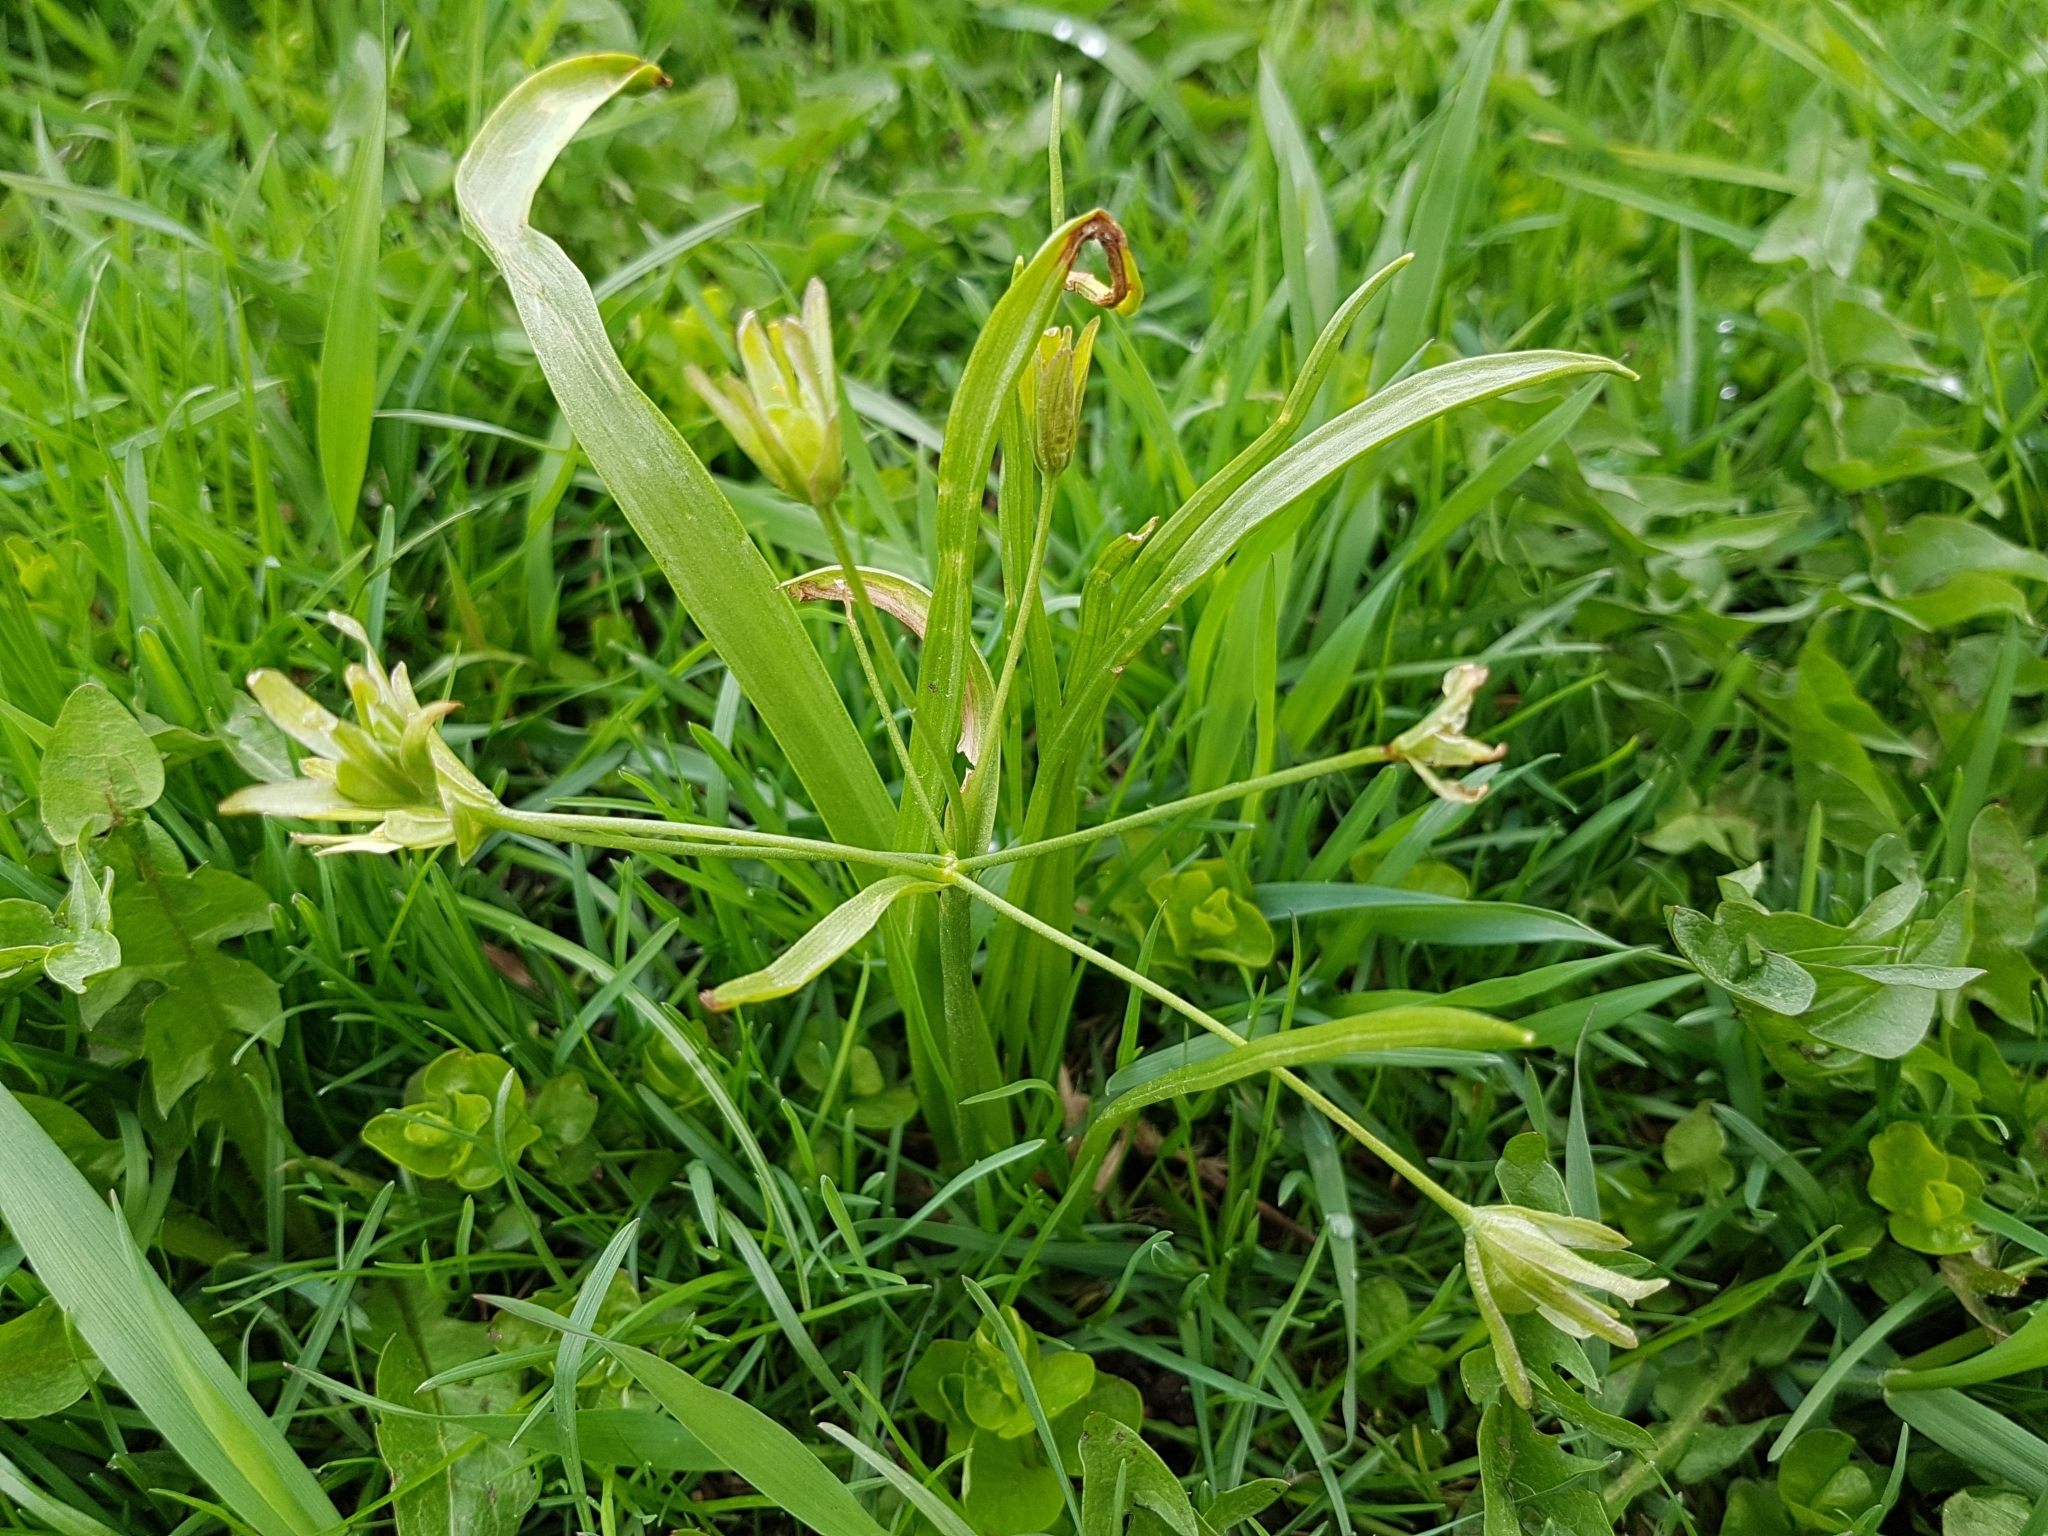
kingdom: Plantae
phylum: Tracheophyta
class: Liliopsida
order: Liliales
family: Liliaceae
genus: Gagea
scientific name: Gagea lutea
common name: Yellow star-of-bethlehem
